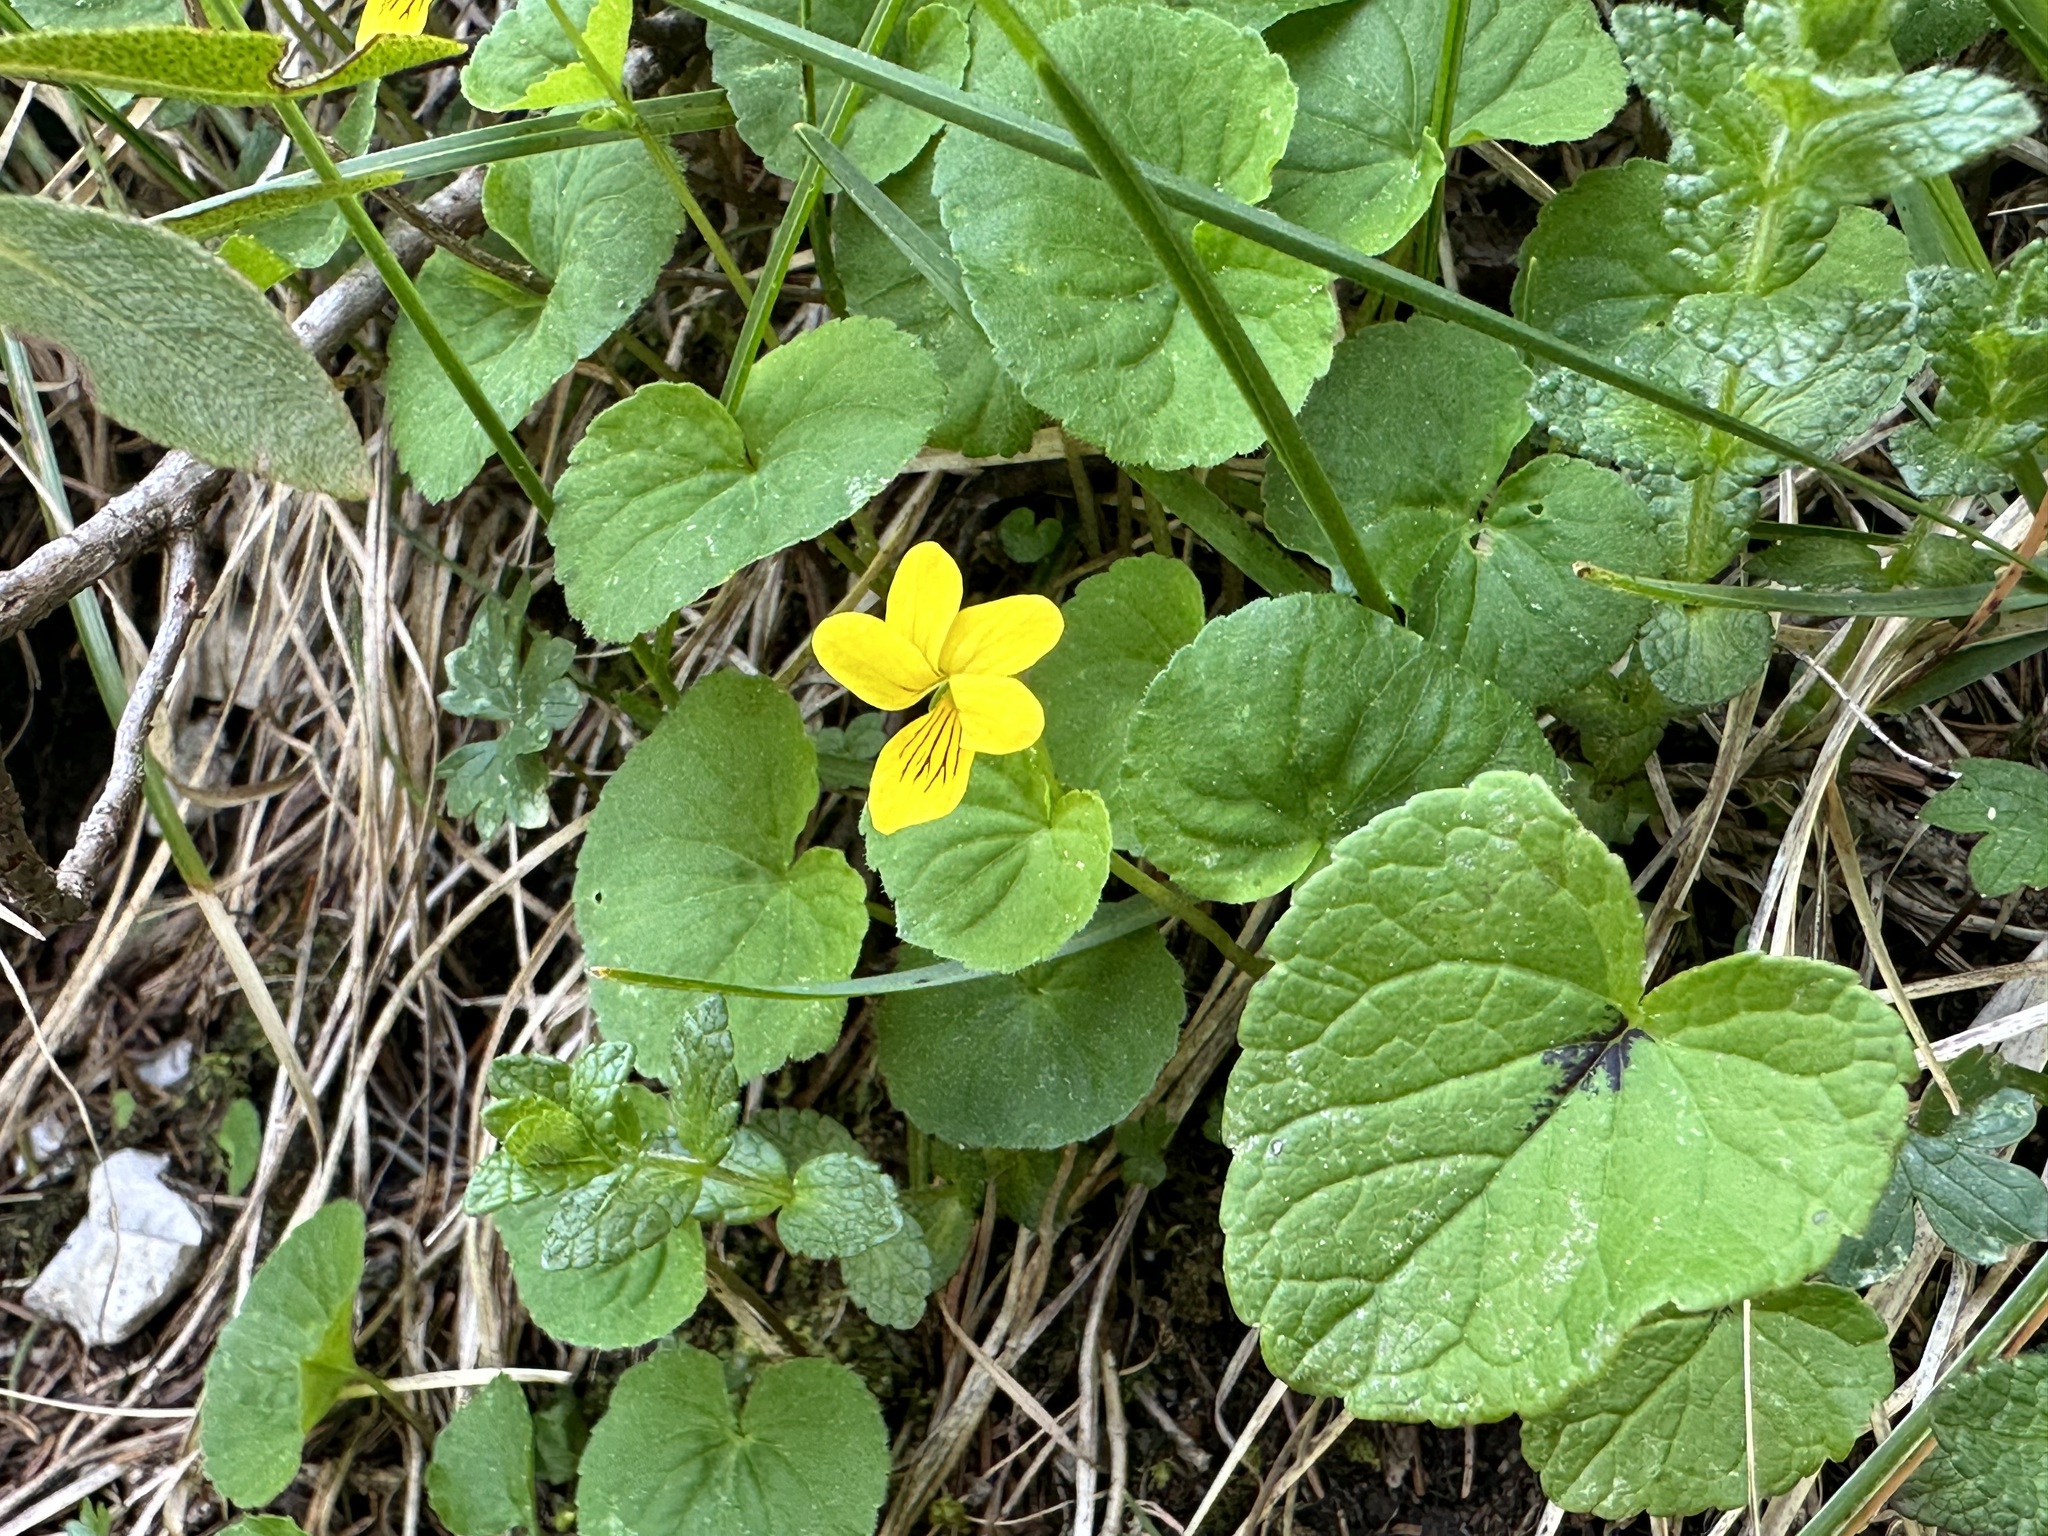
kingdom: Plantae
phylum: Tracheophyta
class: Magnoliopsida
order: Malpighiales
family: Violaceae
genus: Viola
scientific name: Viola biflora
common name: Alpine yellow violet
